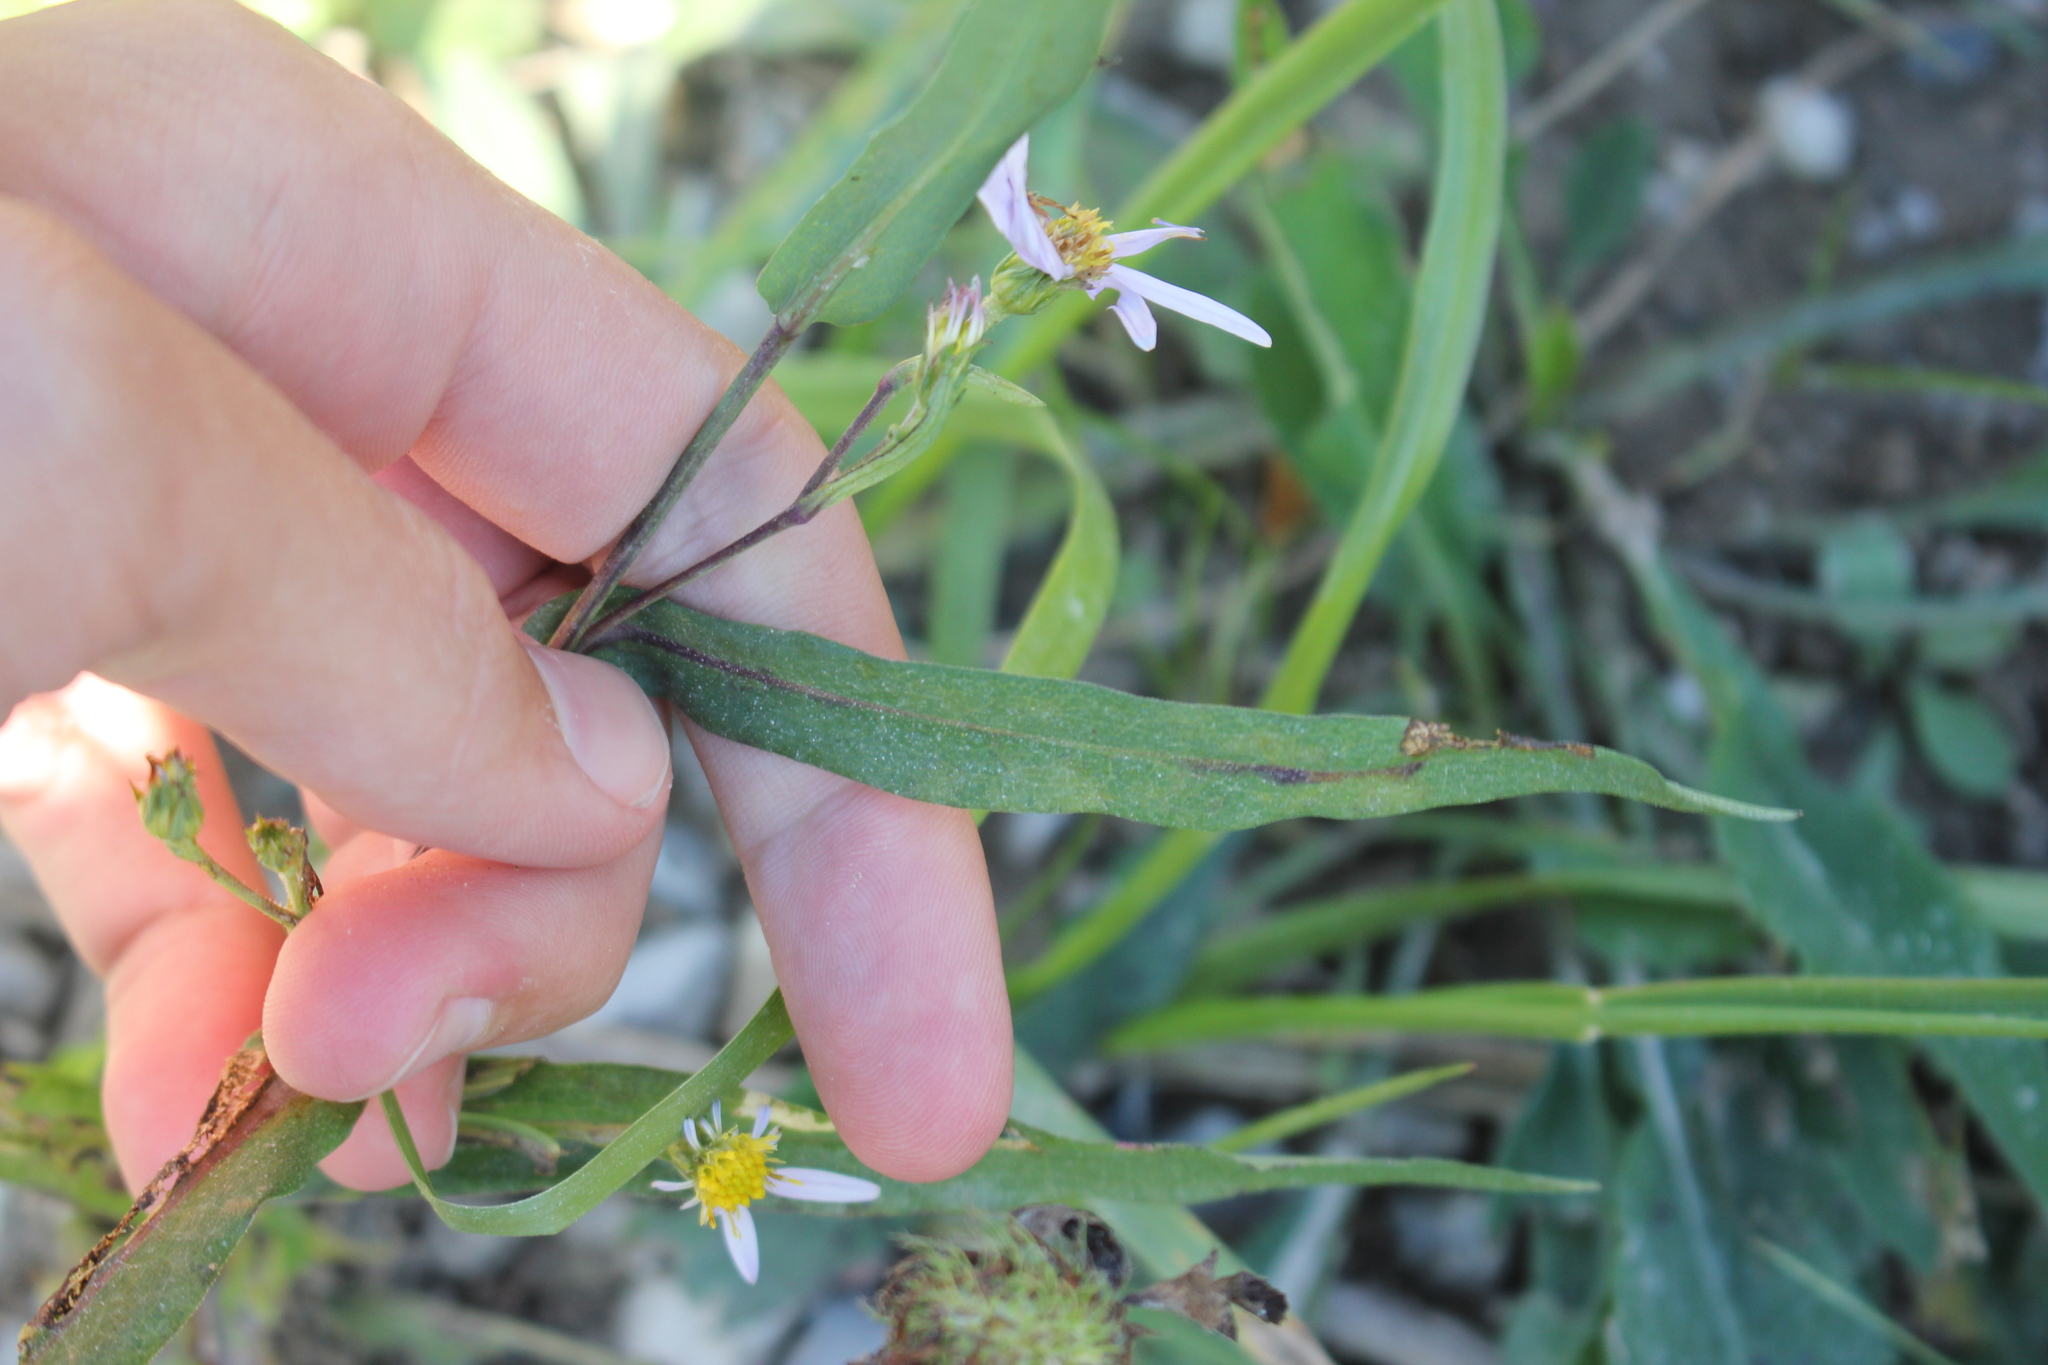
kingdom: Plantae
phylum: Tracheophyta
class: Magnoliopsida
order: Asterales
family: Asteraceae
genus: Symphyotrichum
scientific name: Symphyotrichum laeve
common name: Glaucous aster
